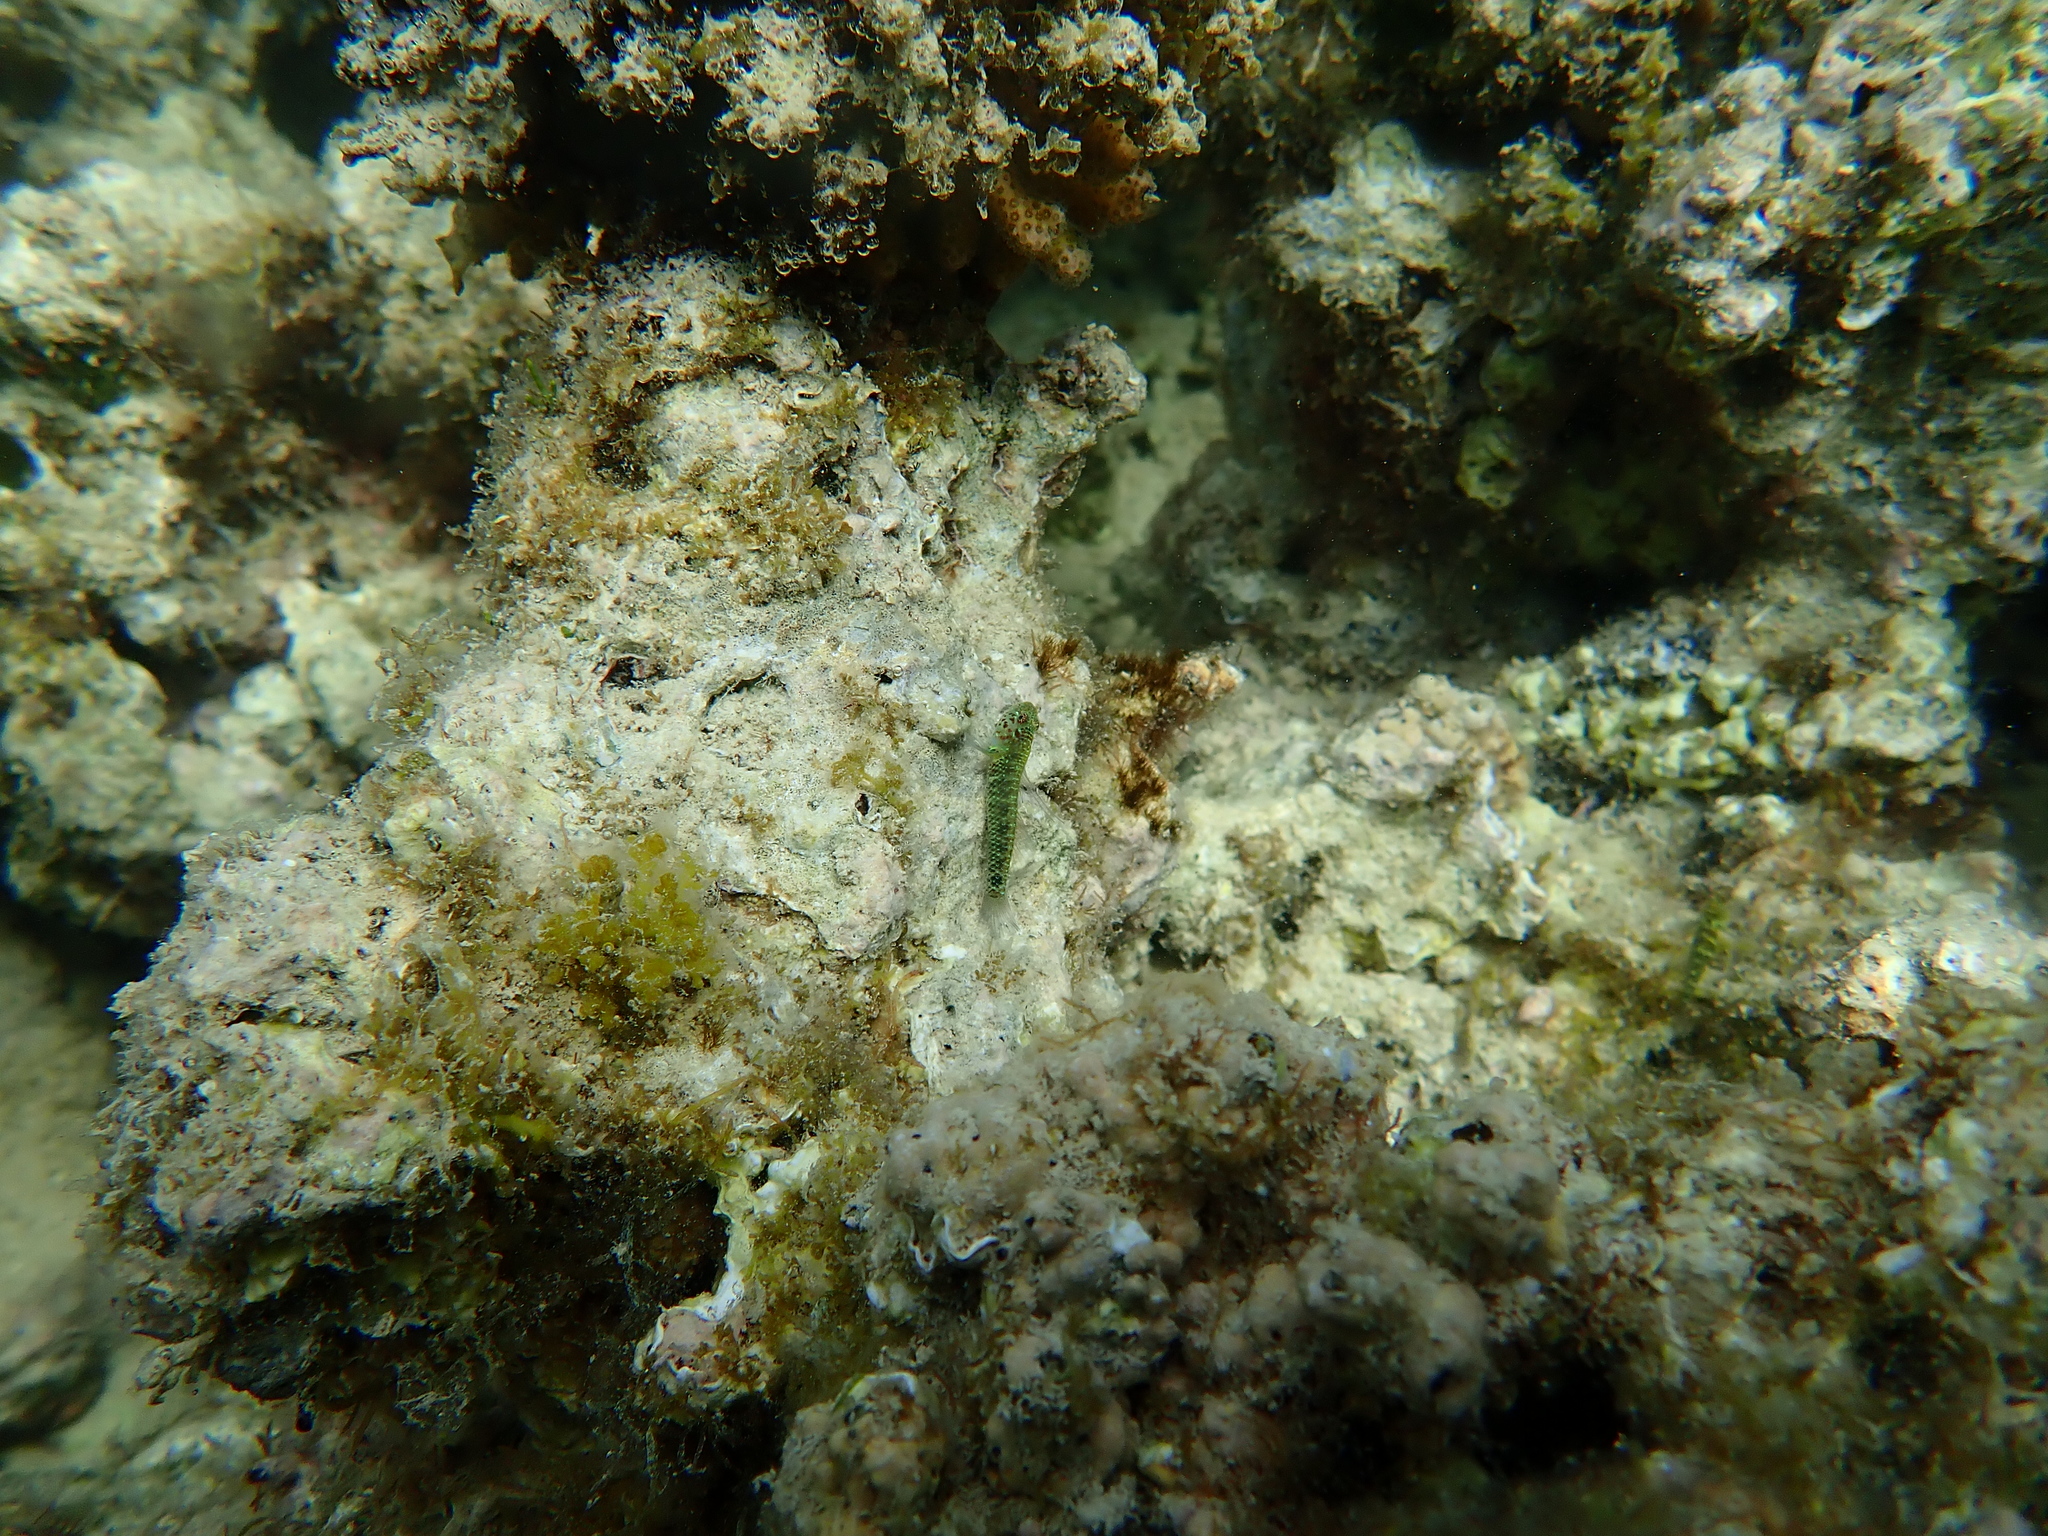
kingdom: Animalia
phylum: Chordata
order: Perciformes
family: Gobiidae
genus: Eviota
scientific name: Eviota hoesei
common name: Doug's eviota
